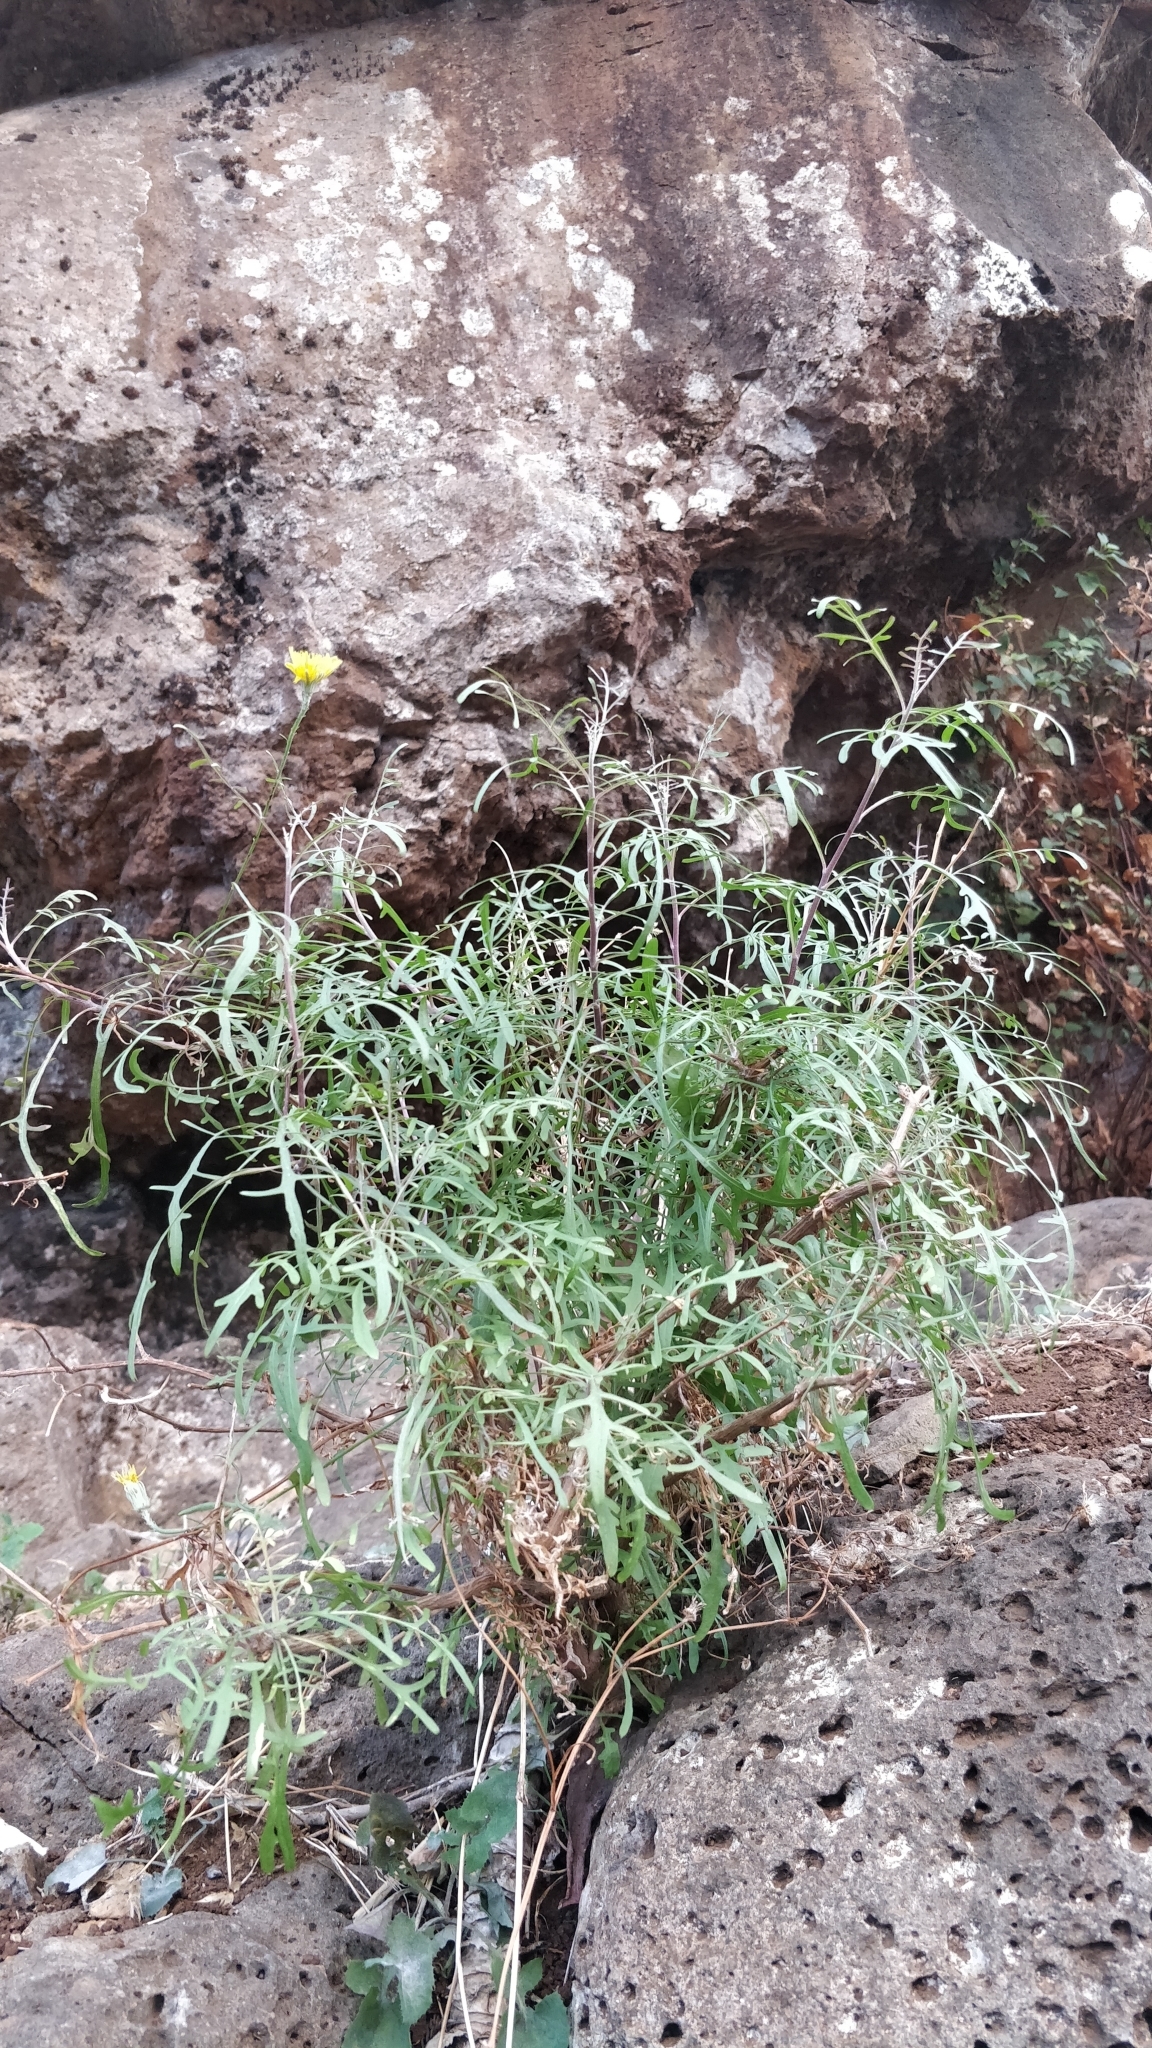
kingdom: Plantae
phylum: Tracheophyta
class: Magnoliopsida
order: Asterales
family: Asteraceae
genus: Tolpis
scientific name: Tolpis succulenta
